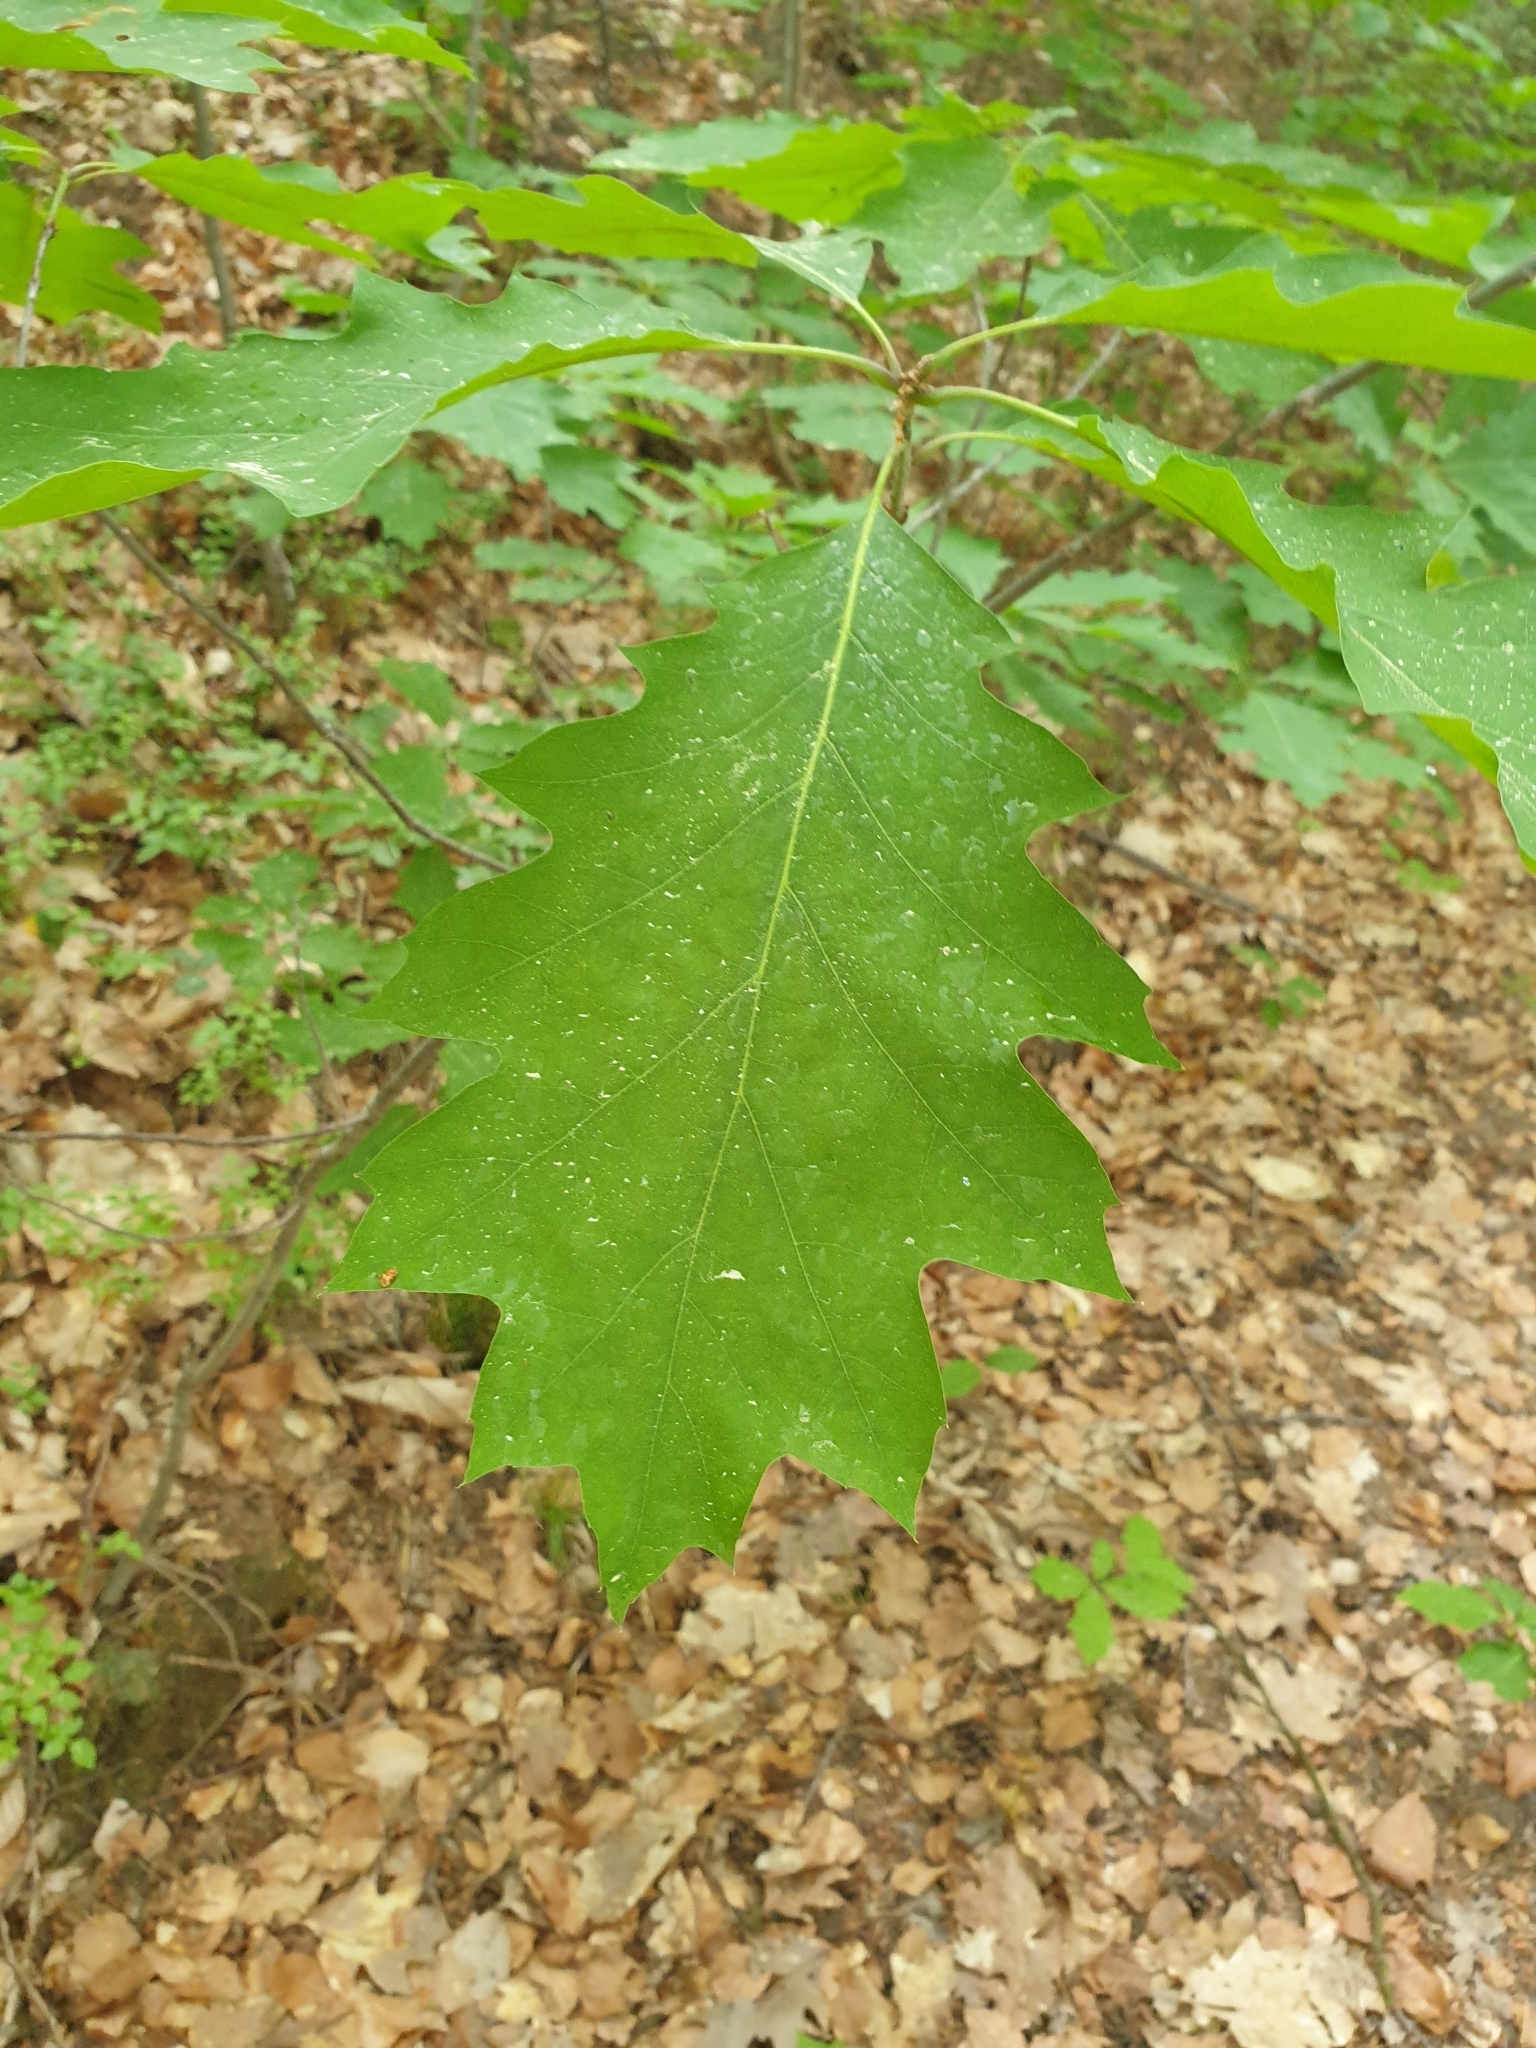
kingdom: Plantae
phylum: Tracheophyta
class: Magnoliopsida
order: Fagales
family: Fagaceae
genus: Quercus
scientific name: Quercus rubra
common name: Red oak
